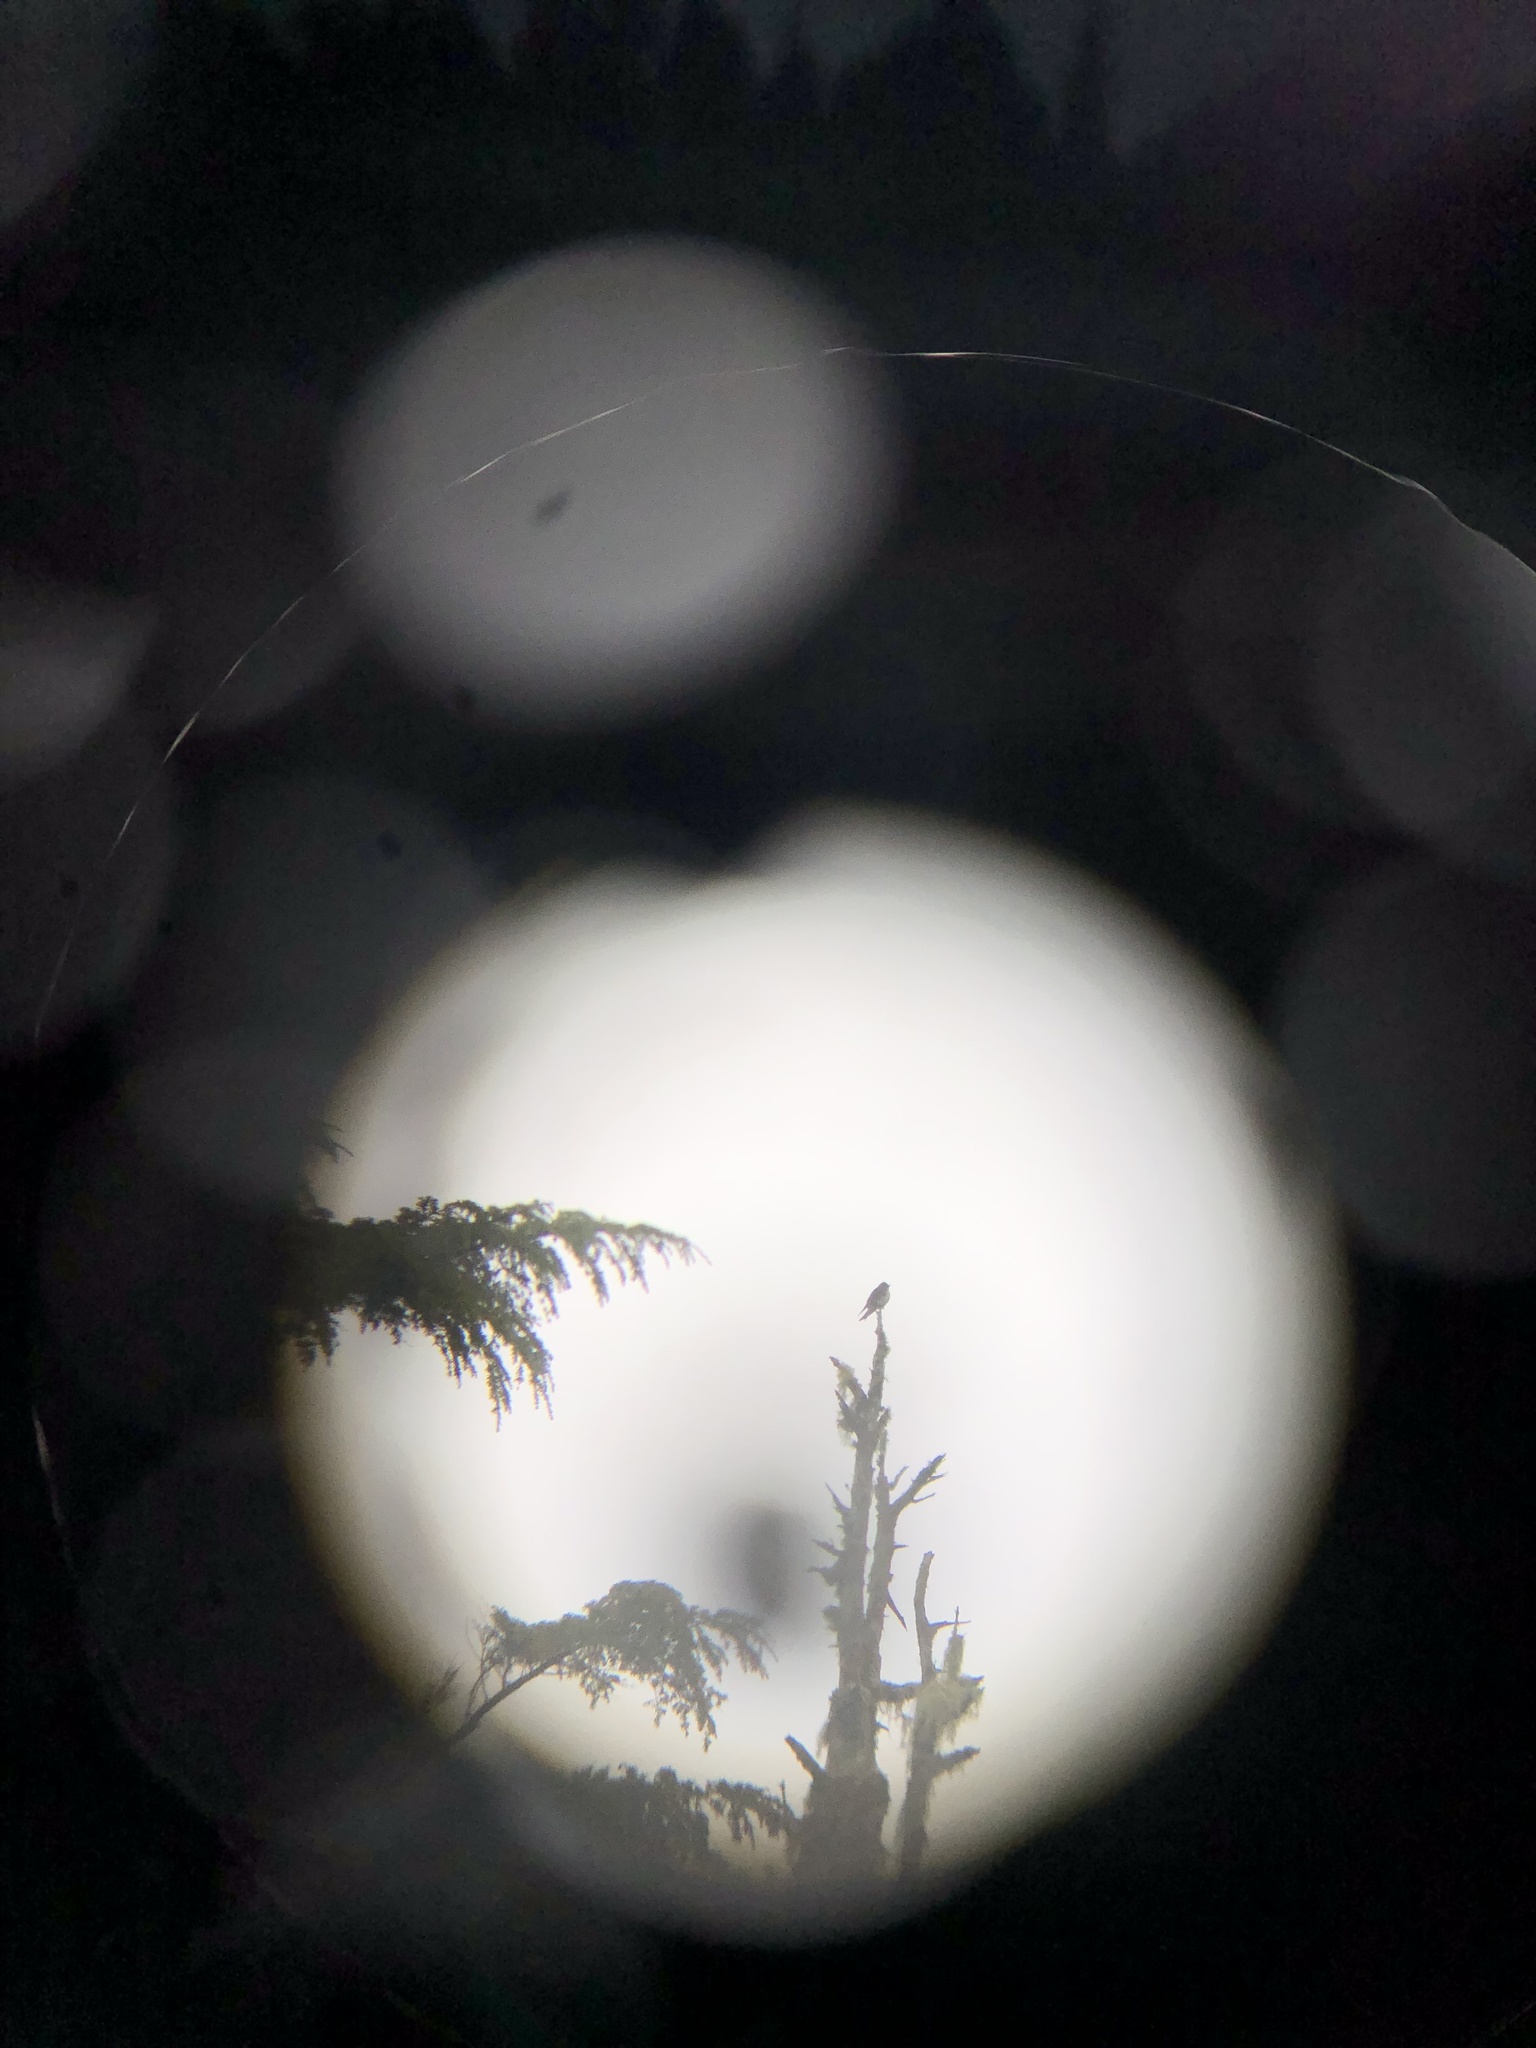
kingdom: Animalia
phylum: Chordata
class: Aves
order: Passeriformes
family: Hirundinidae
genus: Progne
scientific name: Progne subis
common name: Purple martin
